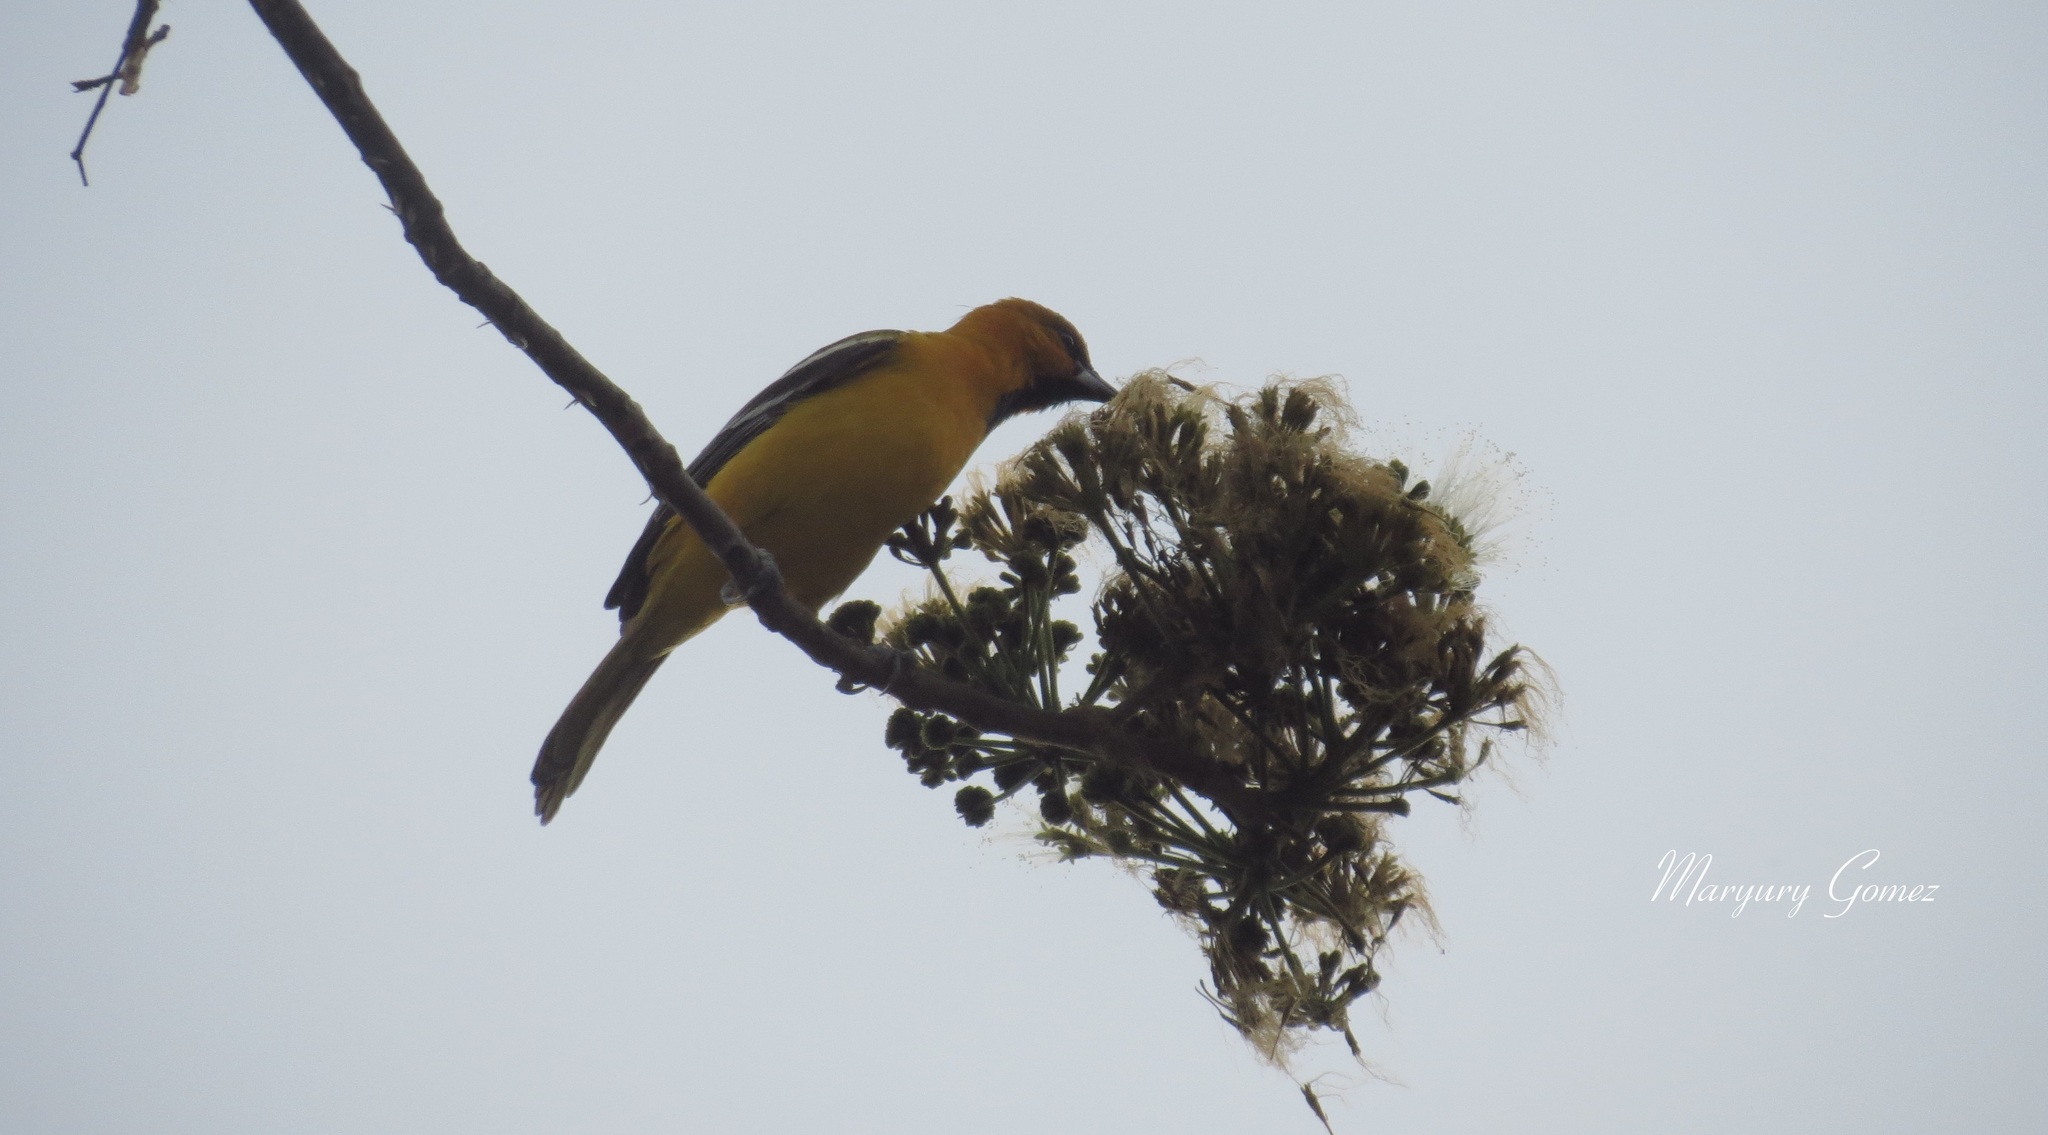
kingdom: Animalia
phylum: Chordata
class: Aves
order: Passeriformes
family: Icteridae
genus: Icterus
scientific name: Icterus pustulatus
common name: Streak-backed oriole
